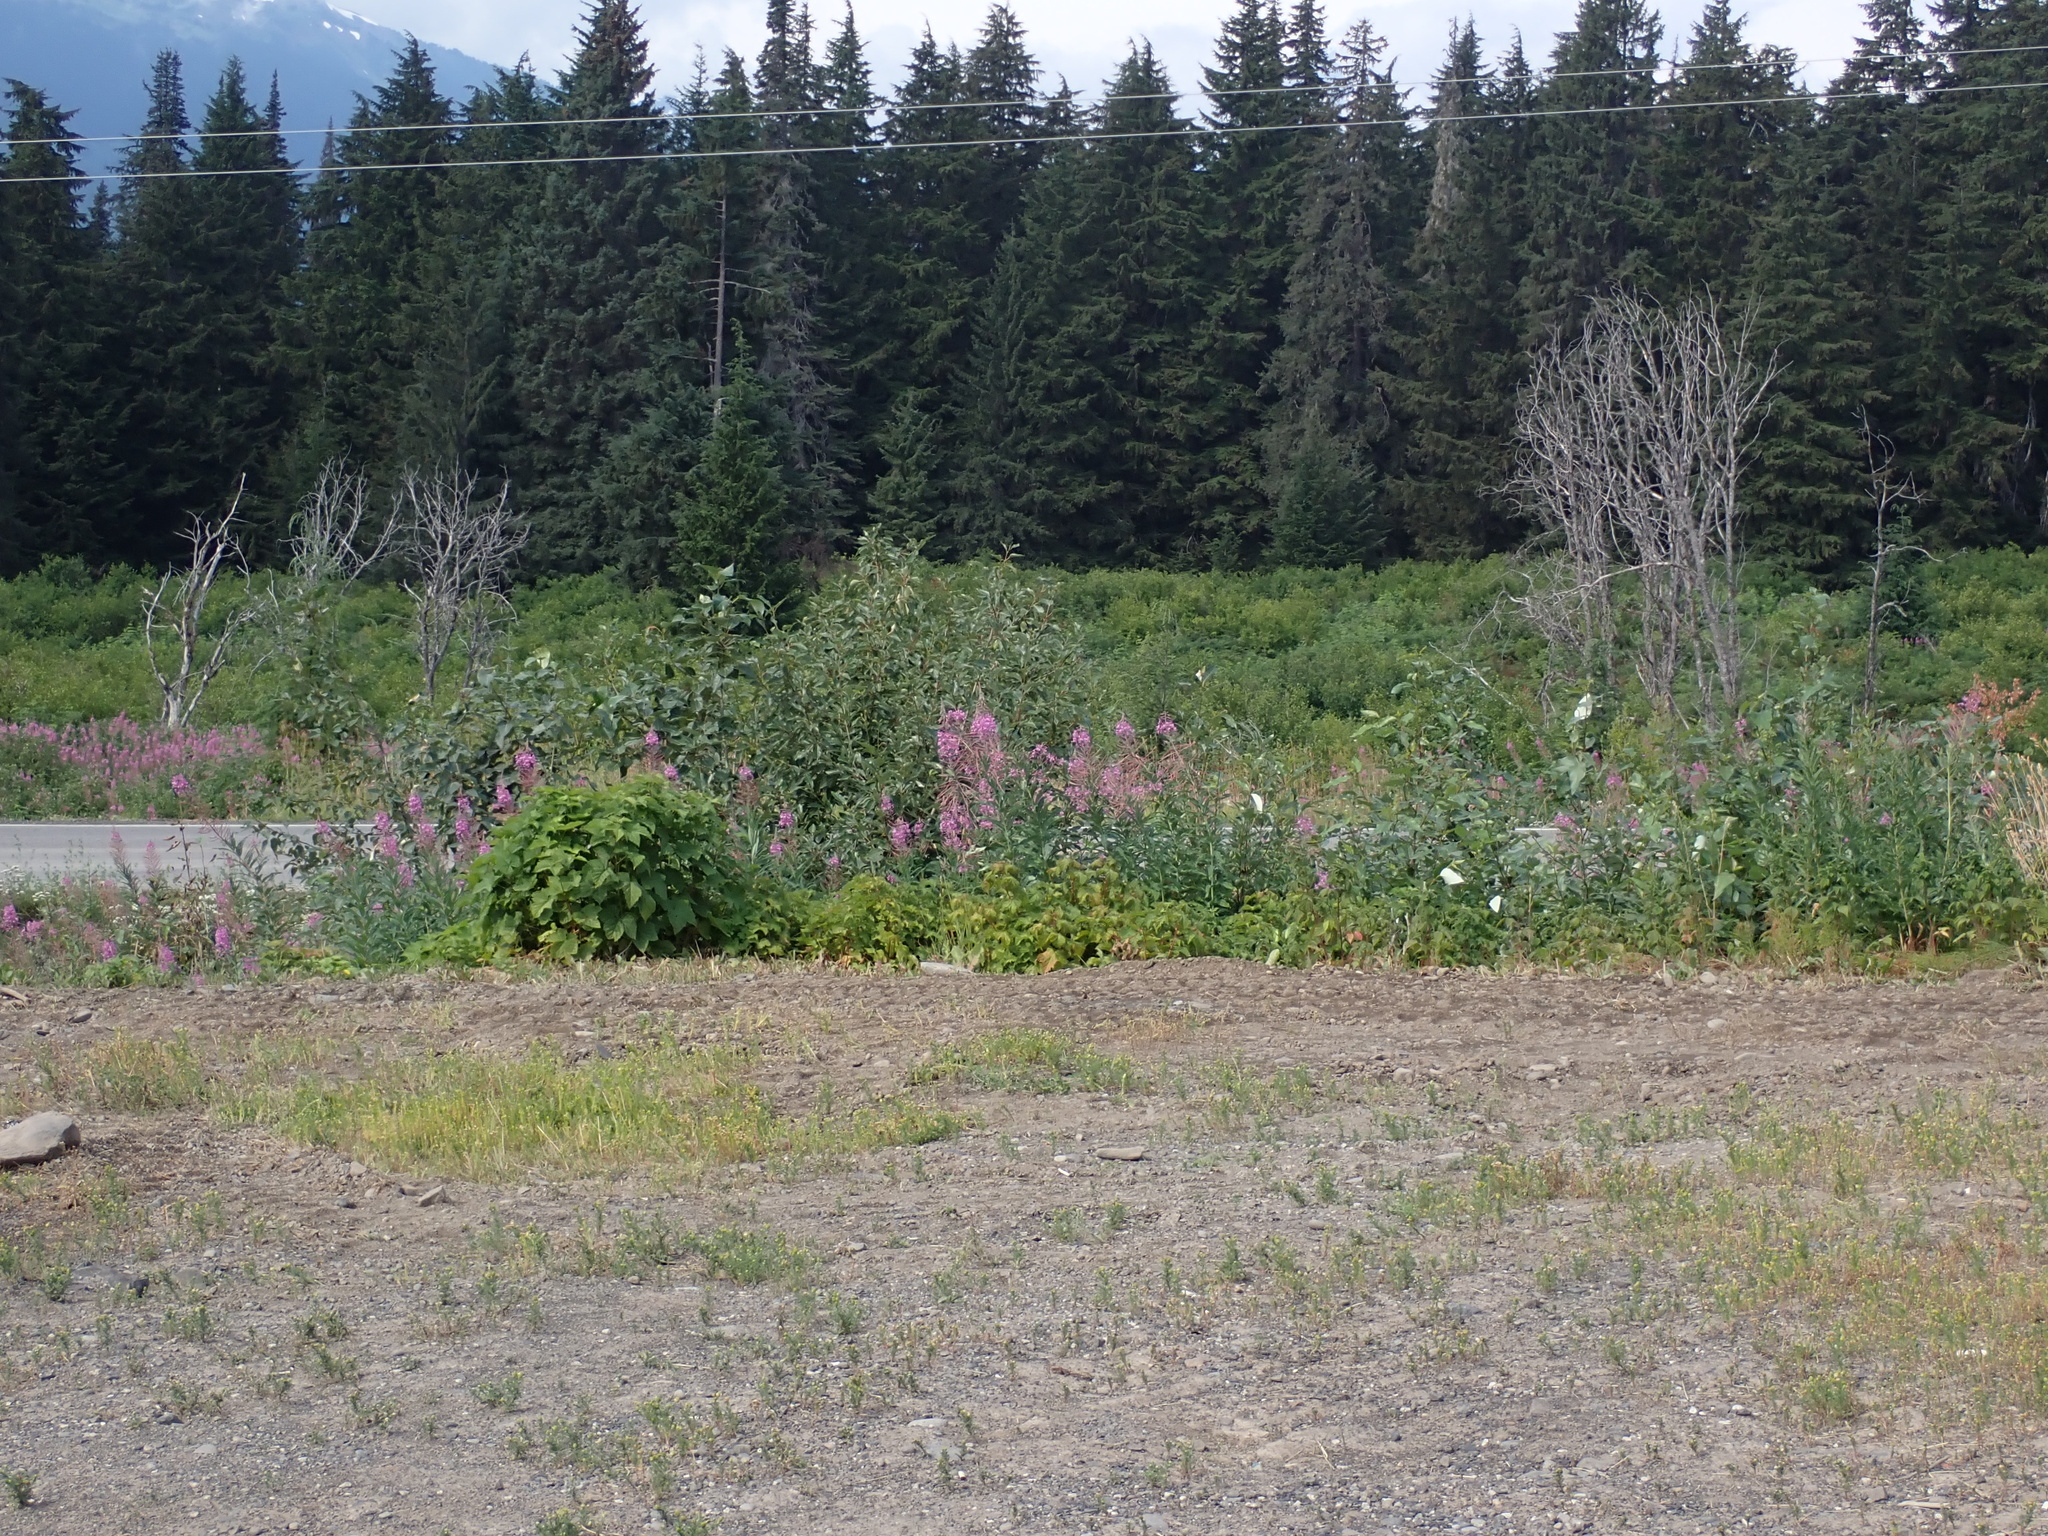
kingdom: Plantae
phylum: Tracheophyta
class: Magnoliopsida
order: Myrtales
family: Onagraceae
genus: Chamaenerion
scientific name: Chamaenerion angustifolium
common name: Fireweed
